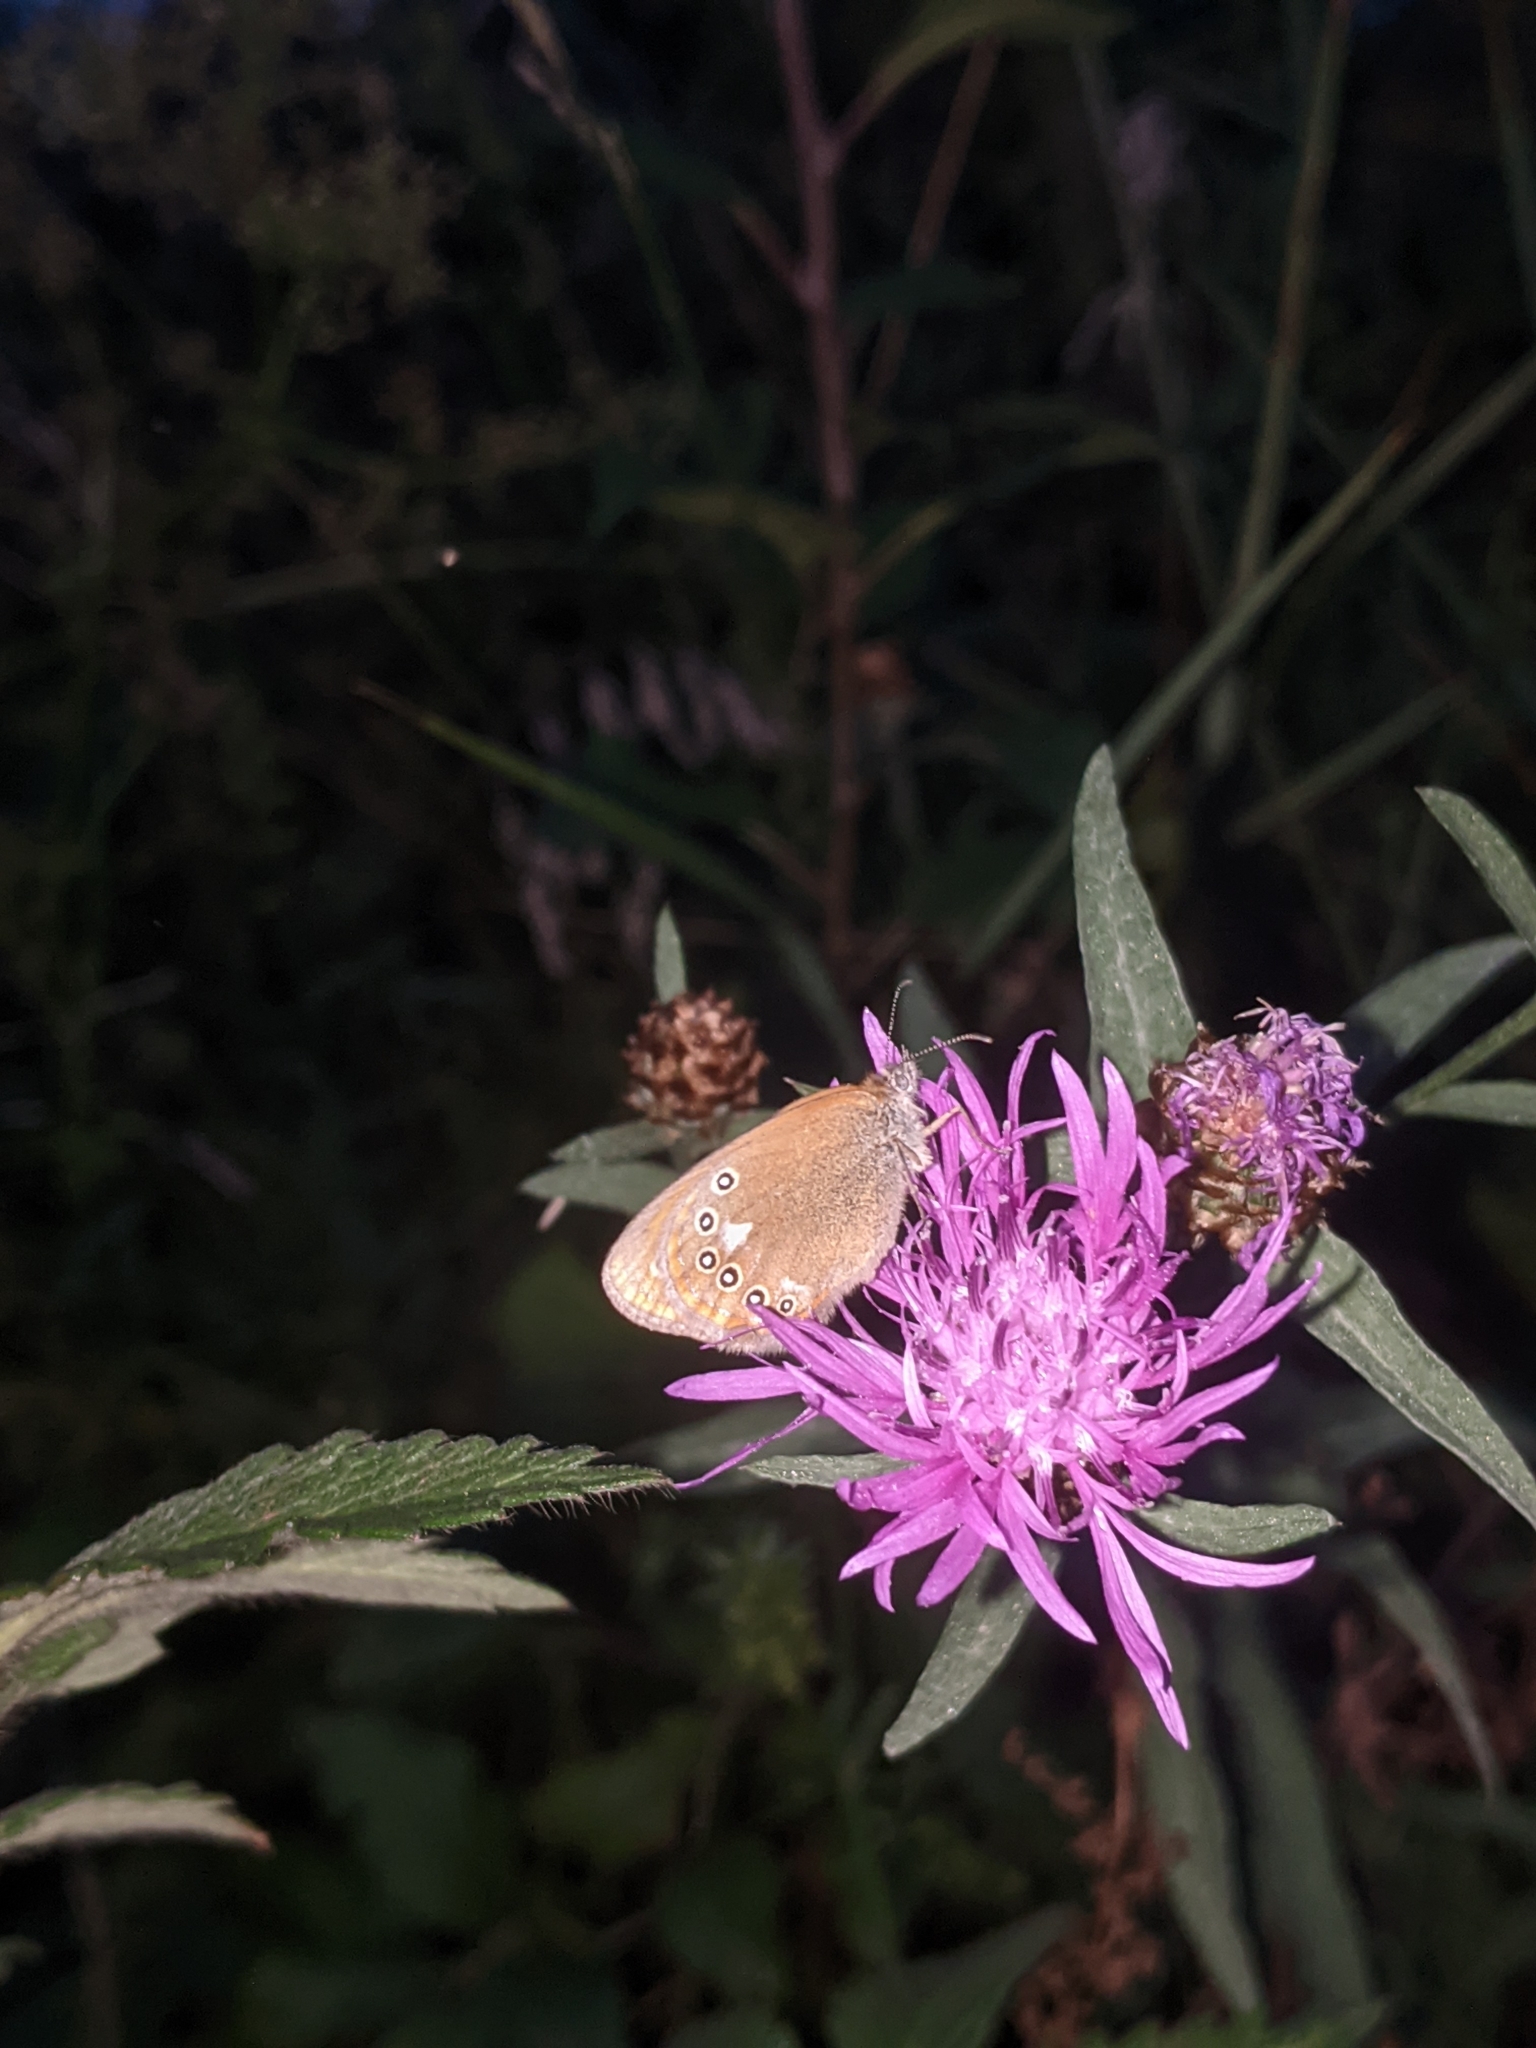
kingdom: Animalia
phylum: Arthropoda
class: Insecta
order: Lepidoptera
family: Nymphalidae
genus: Coenonympha
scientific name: Coenonympha iphis
